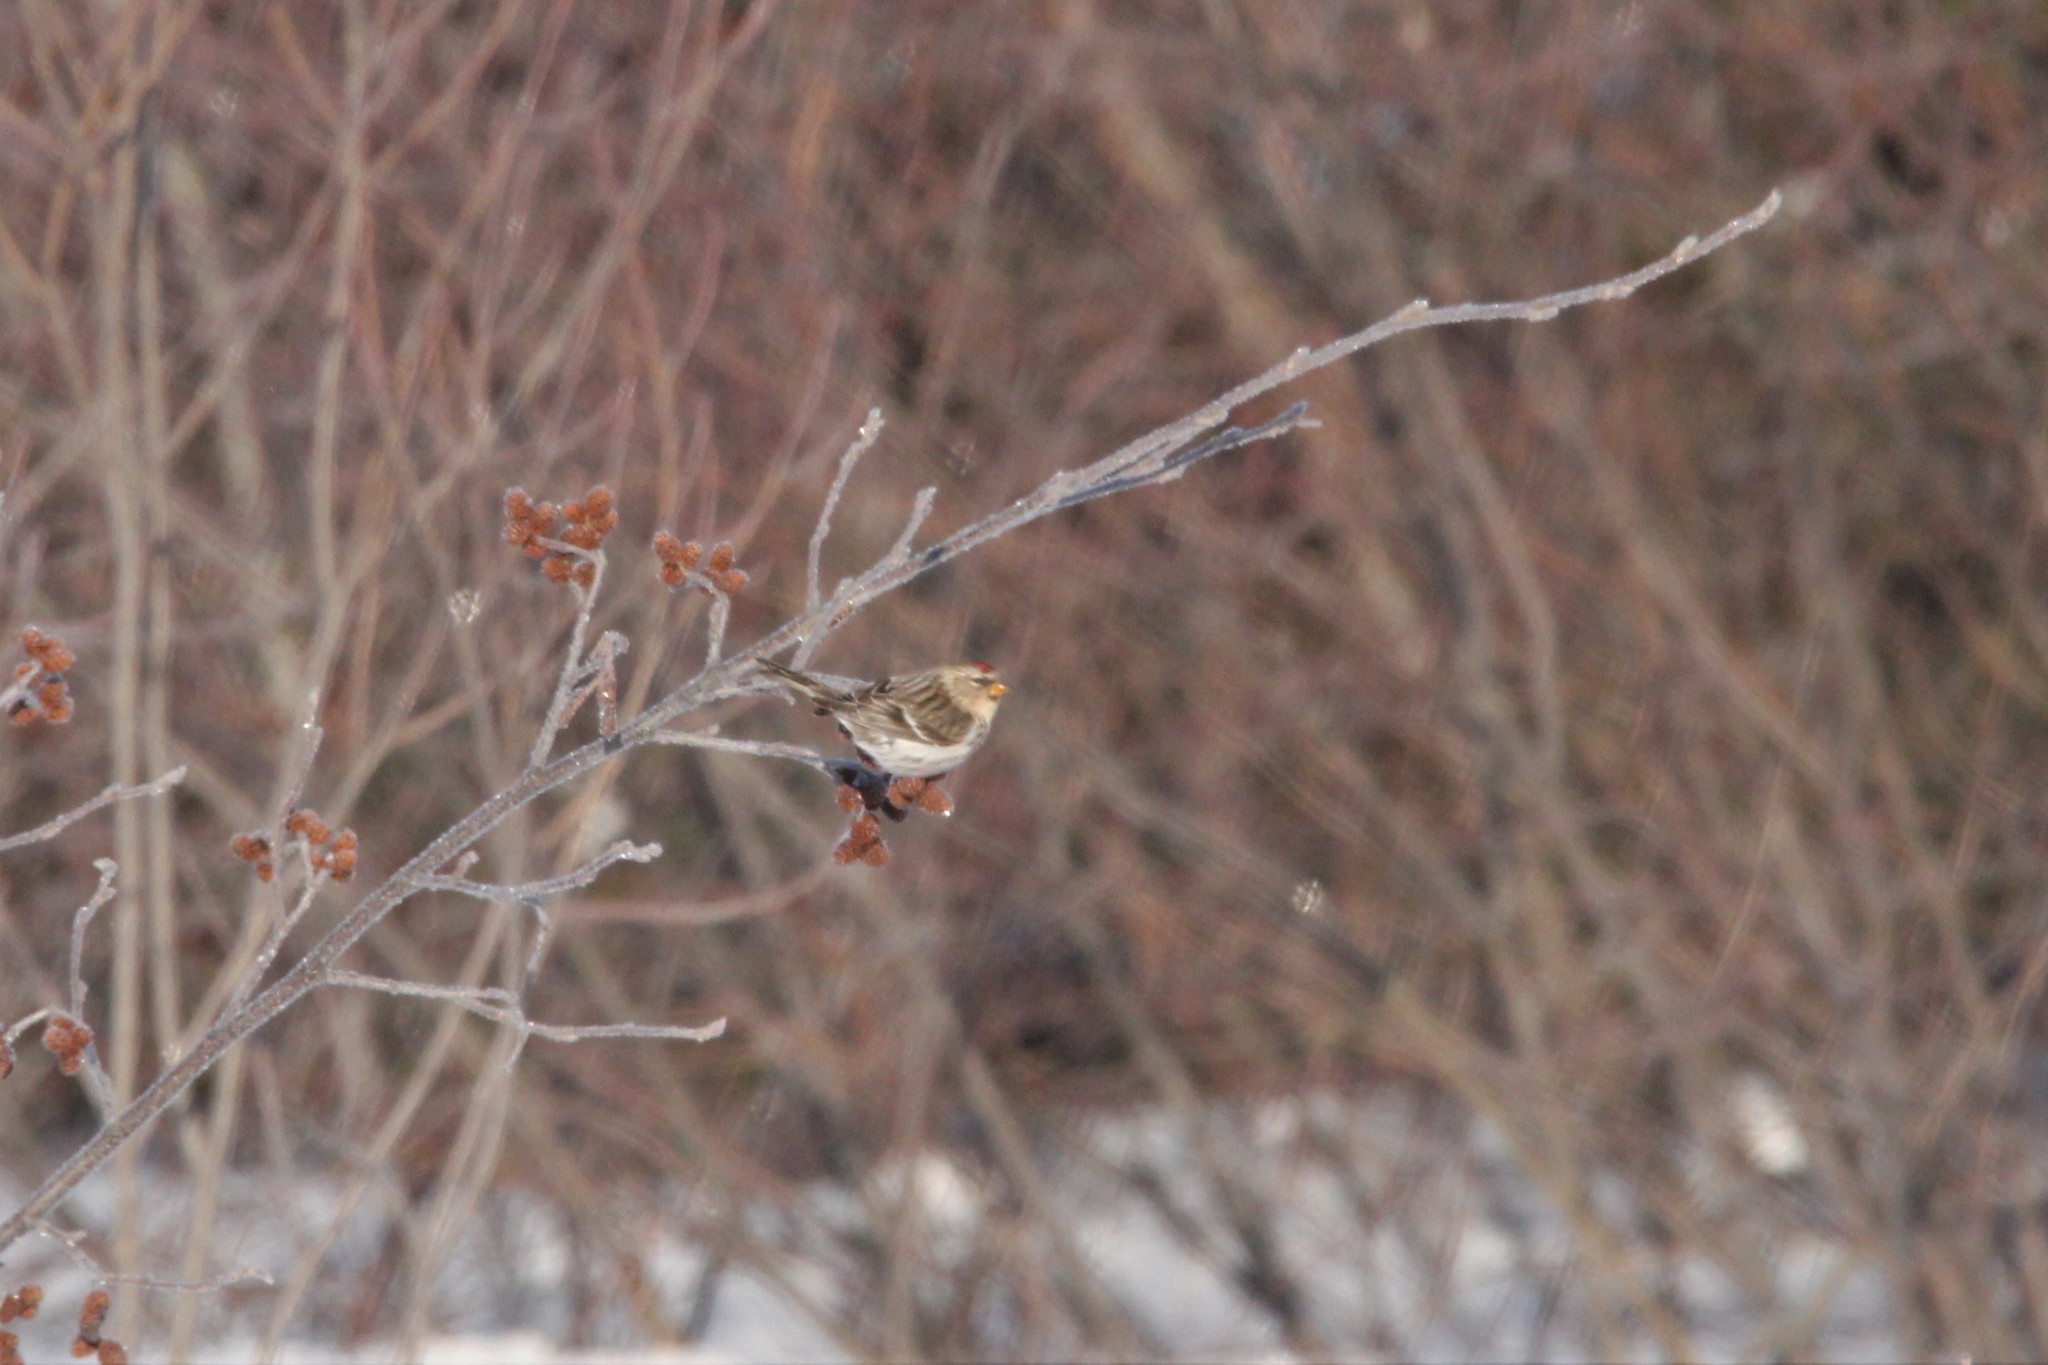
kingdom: Animalia
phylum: Chordata
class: Aves
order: Passeriformes
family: Fringillidae
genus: Acanthis
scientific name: Acanthis flammea
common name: Common redpoll
